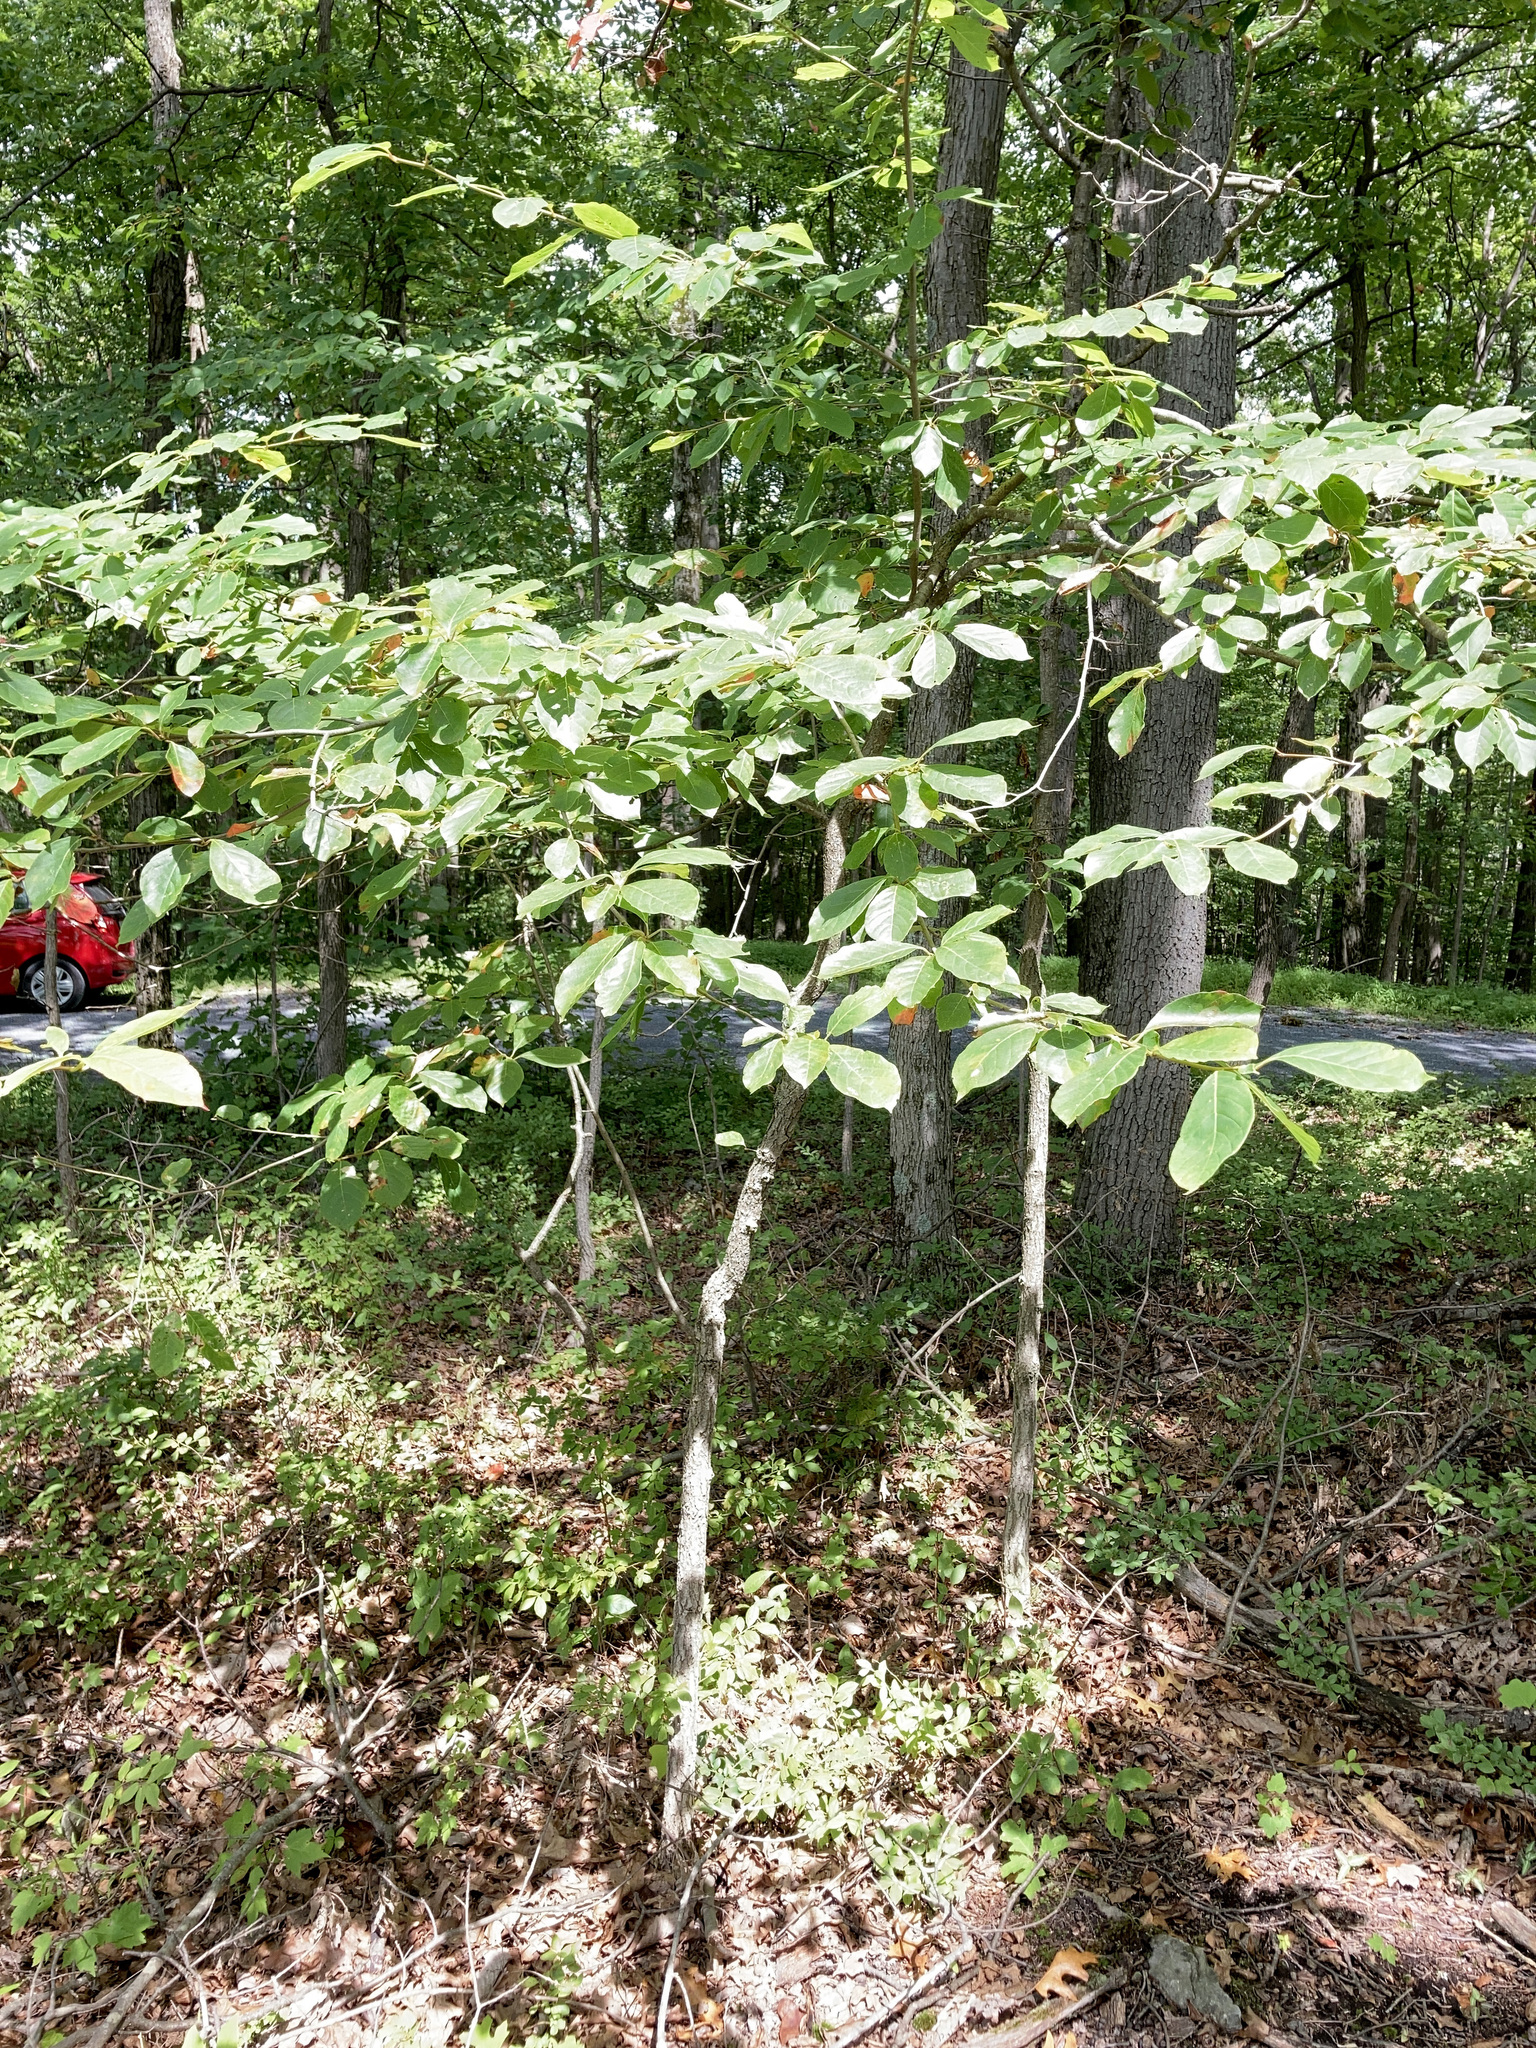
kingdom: Plantae
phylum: Tracheophyta
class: Magnoliopsida
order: Cornales
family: Nyssaceae
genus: Nyssa
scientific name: Nyssa sylvatica
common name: Black tupelo
